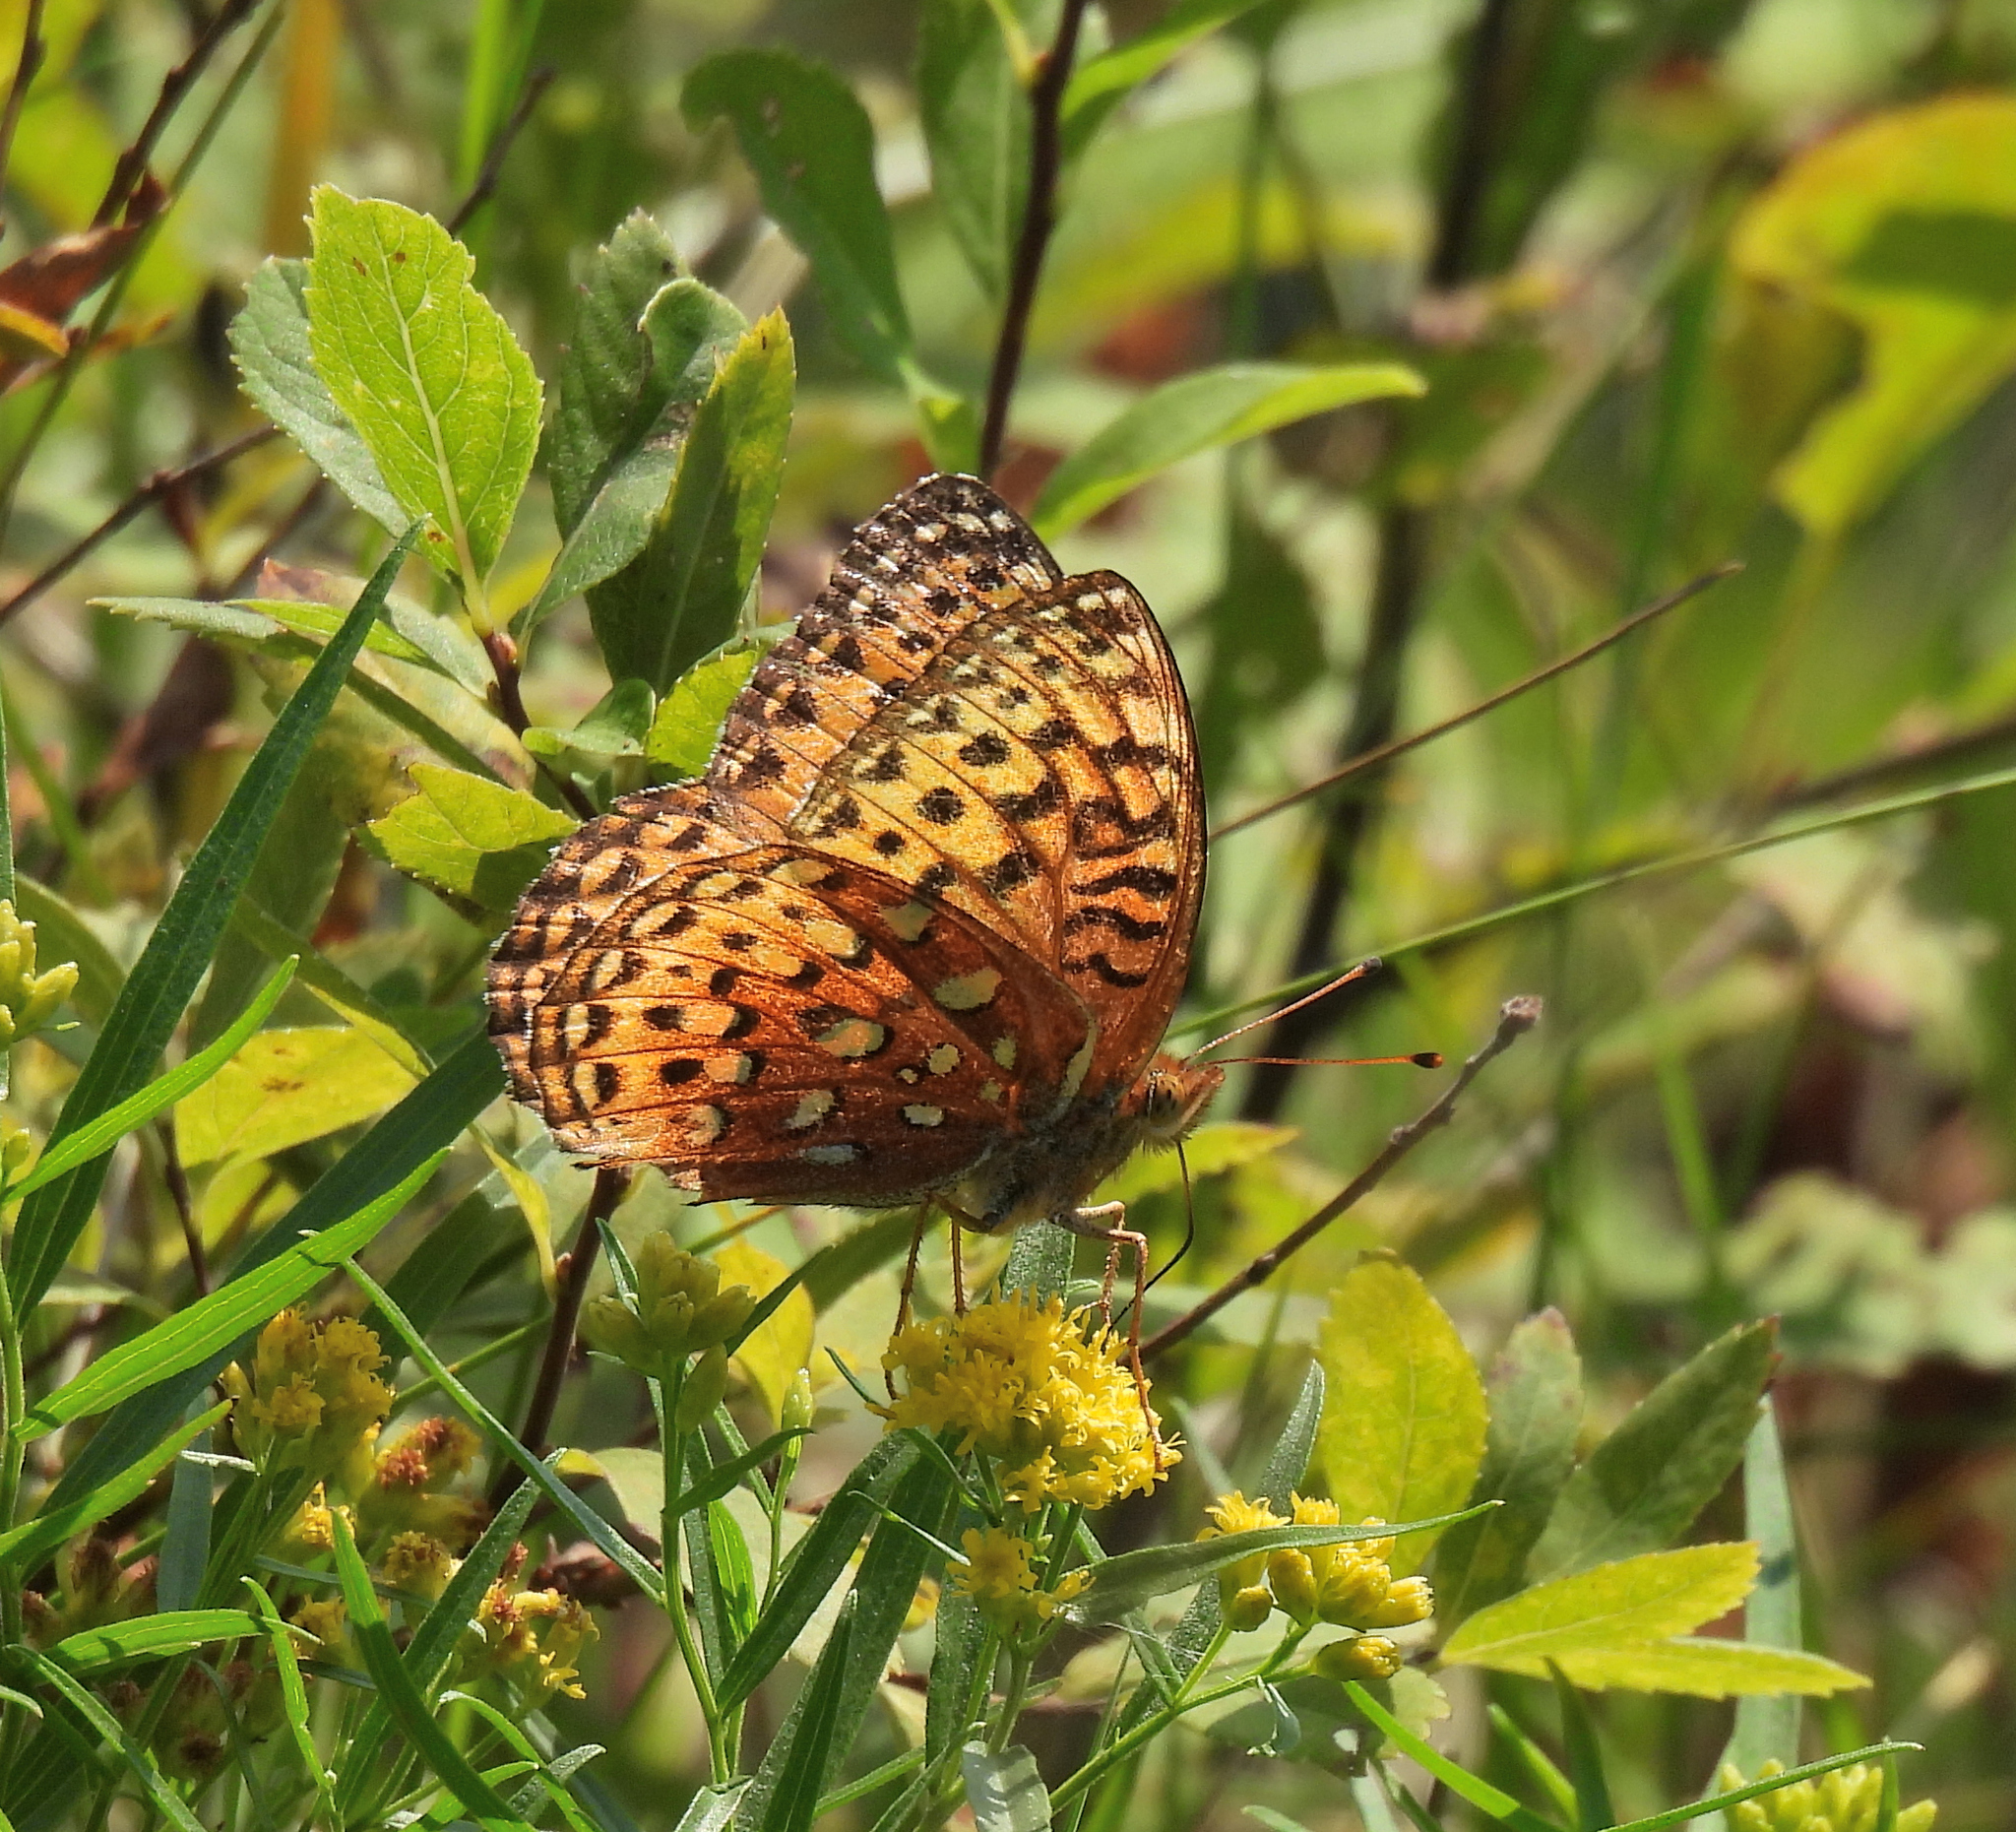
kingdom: Animalia
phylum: Arthropoda
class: Insecta
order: Lepidoptera
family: Nymphalidae
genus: Speyeria
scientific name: Speyeria cybele
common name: Great spangled fritillary
